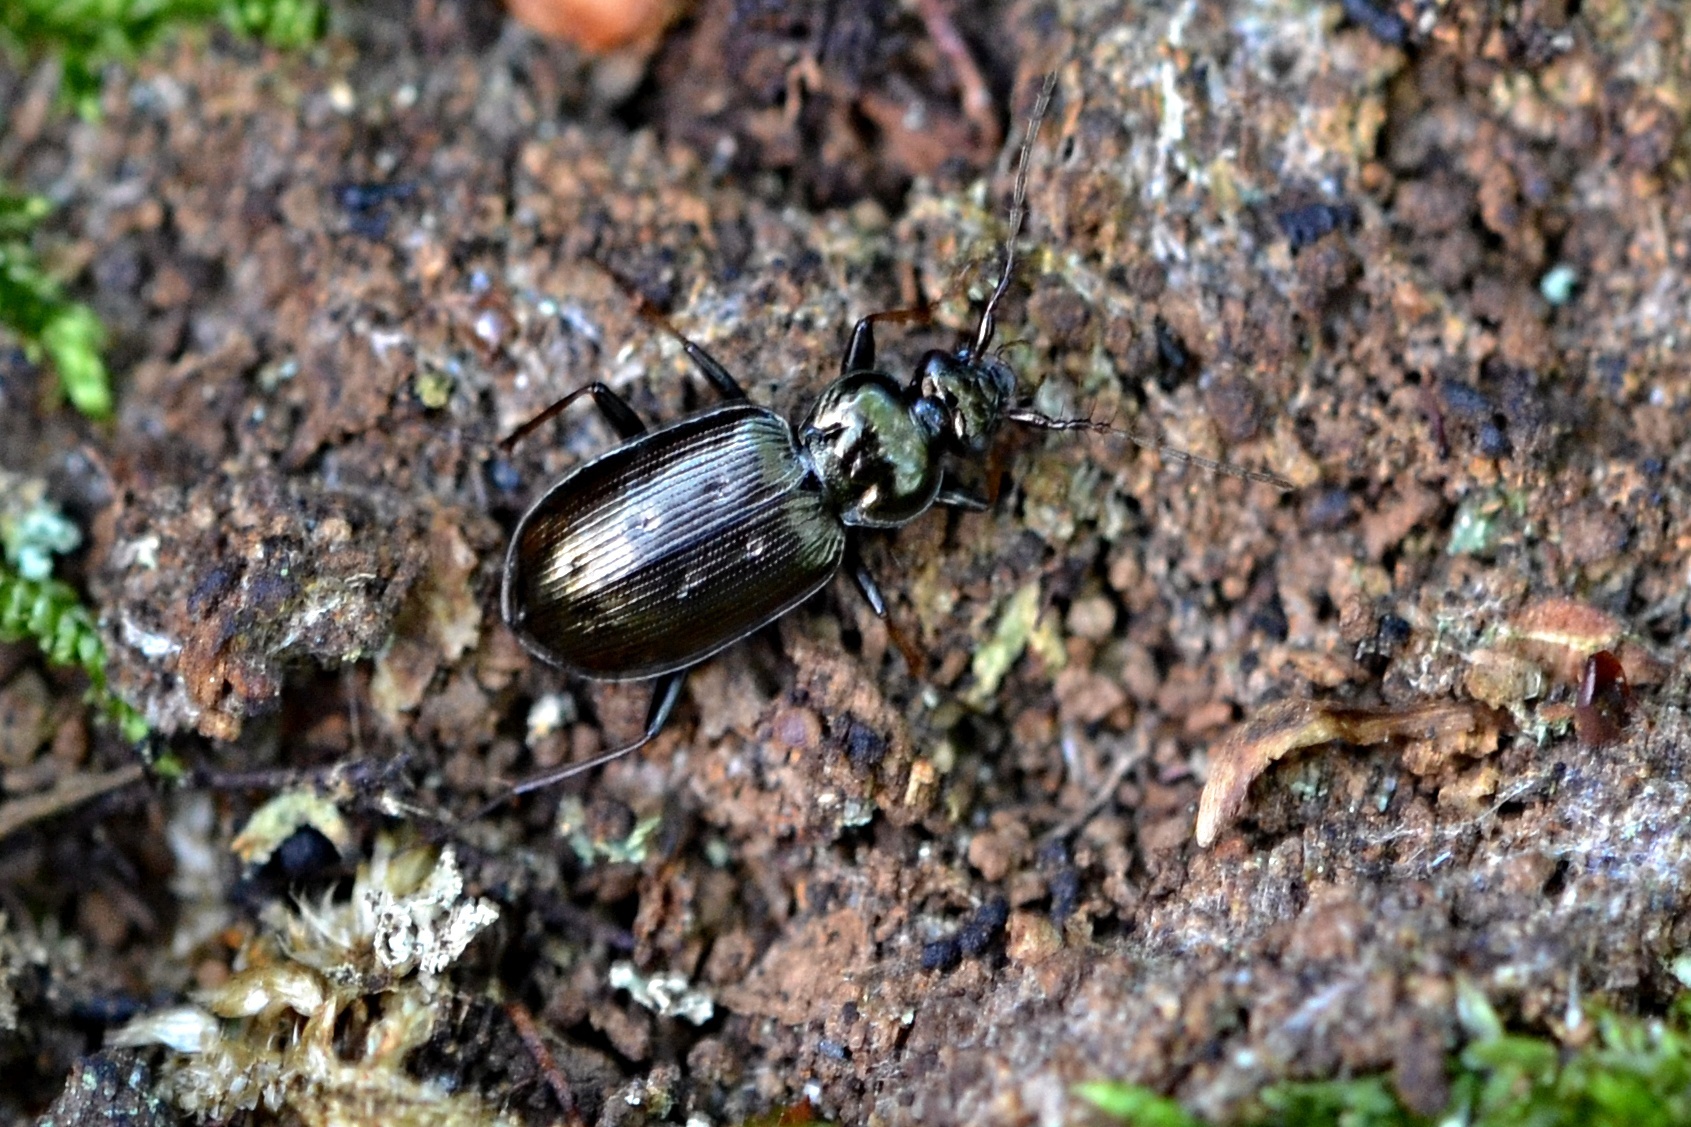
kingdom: Animalia
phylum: Arthropoda
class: Insecta
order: Coleoptera
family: Carabidae
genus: Loricera
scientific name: Loricera pilicornis
